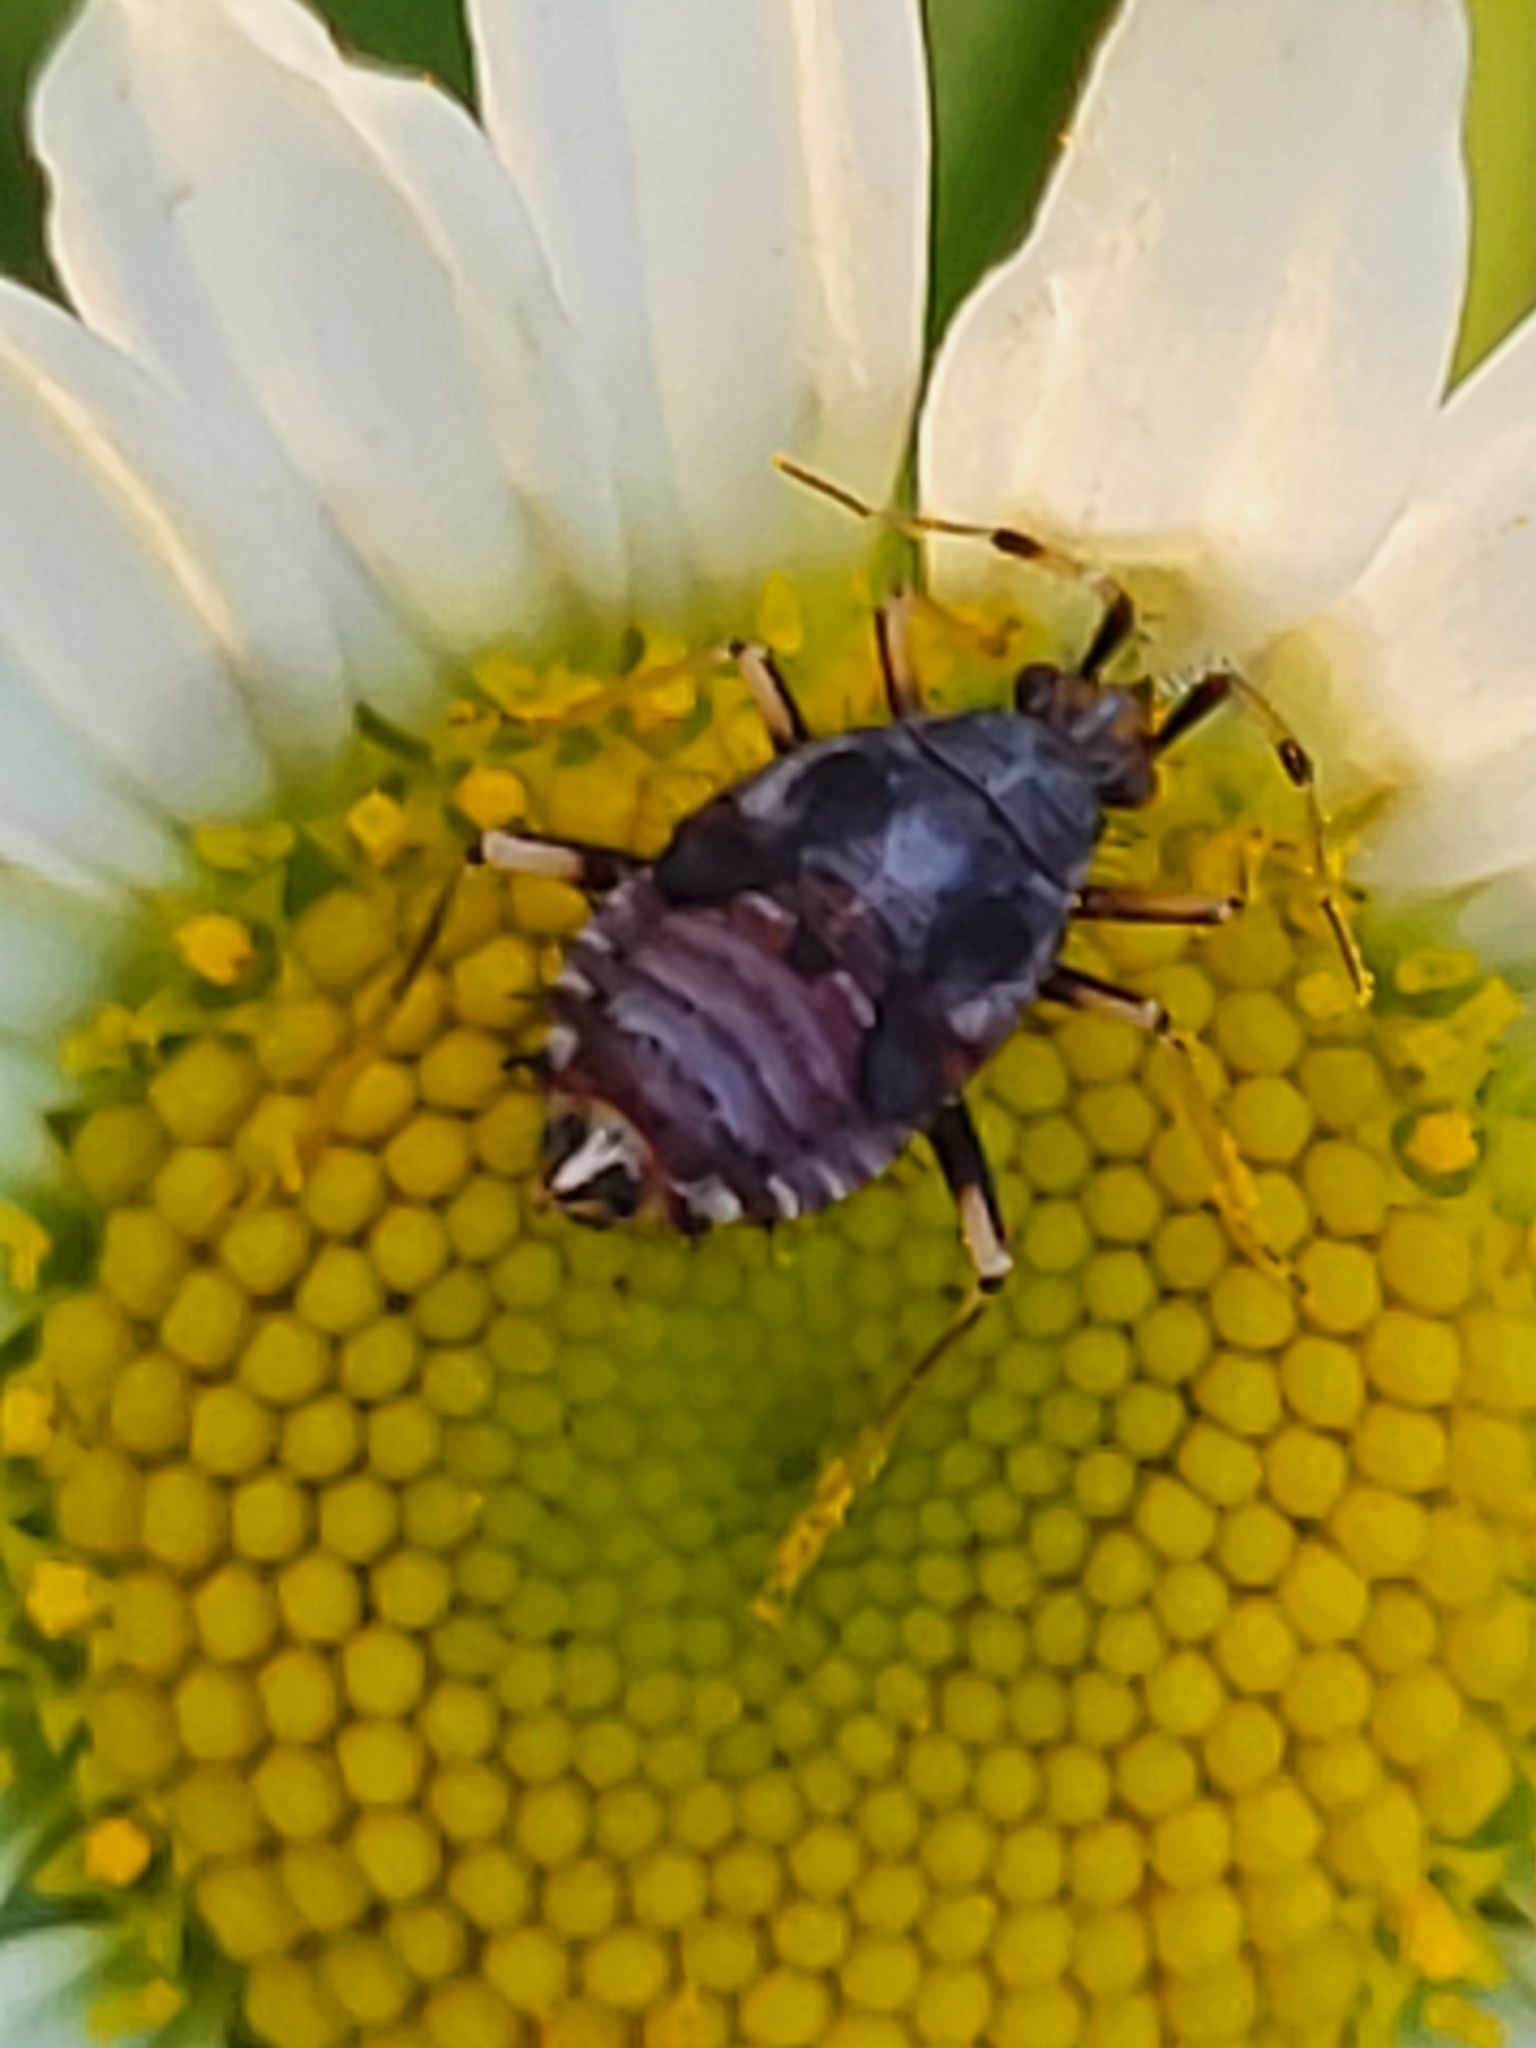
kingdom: Animalia
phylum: Arthropoda
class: Insecta
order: Hemiptera
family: Miridae
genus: Deraeocoris
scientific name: Deraeocoris ruber
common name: Plant bug
